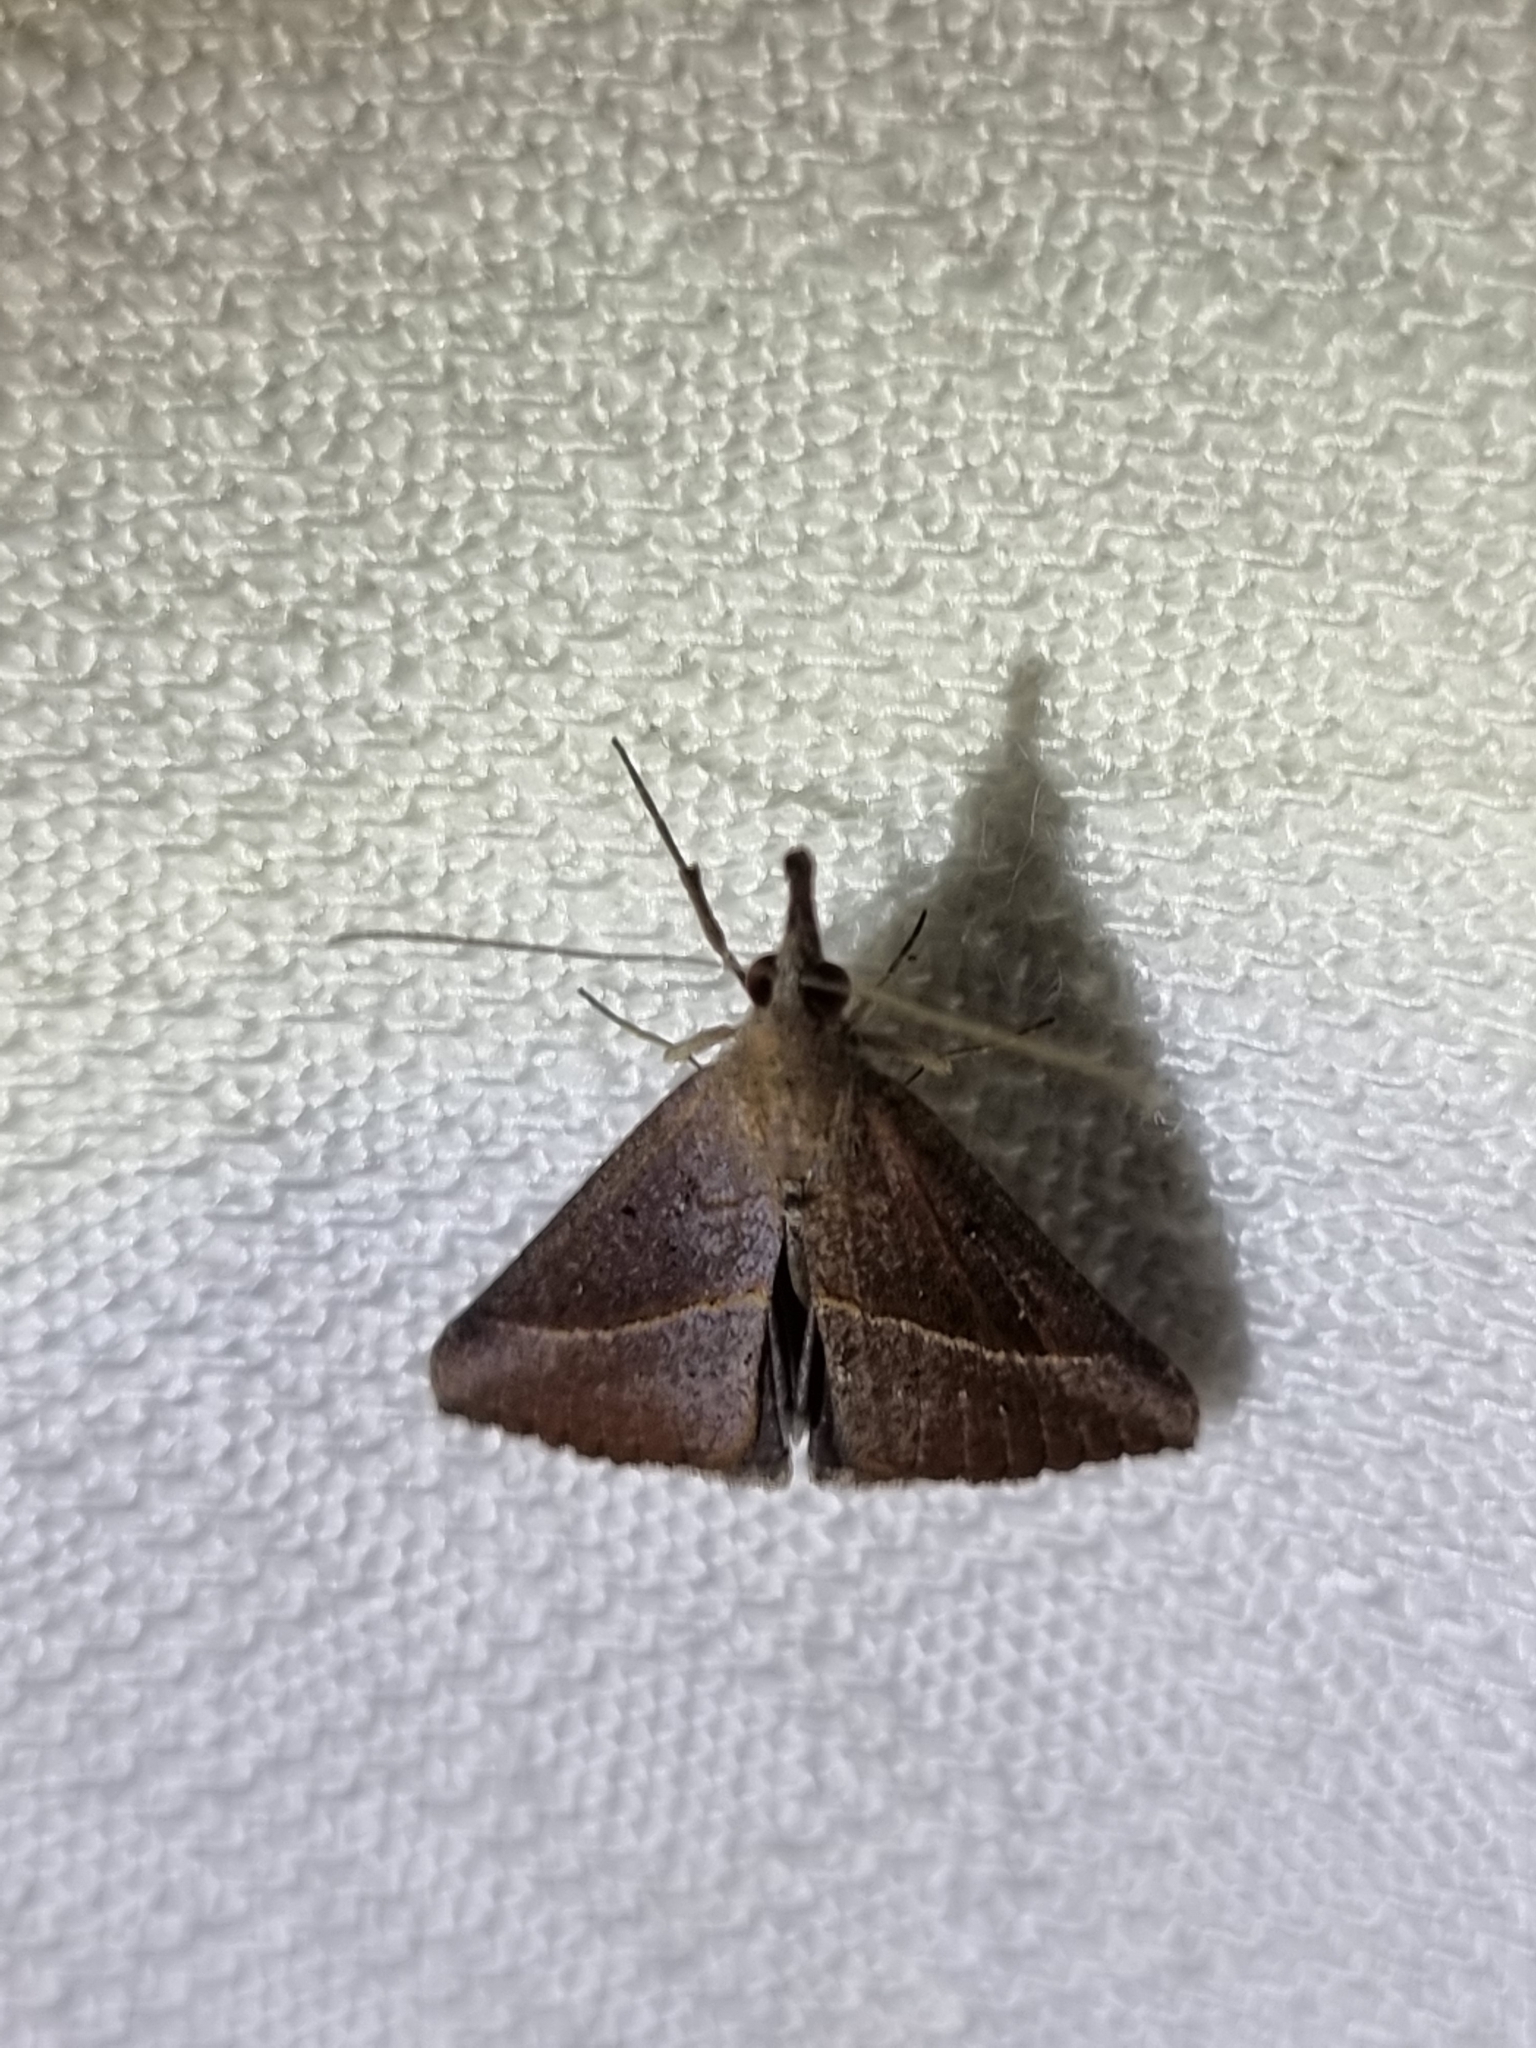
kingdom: Animalia
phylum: Arthropoda
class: Insecta
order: Lepidoptera
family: Erebidae
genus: Hypena
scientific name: Hypena lividalis
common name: Chevron snout
